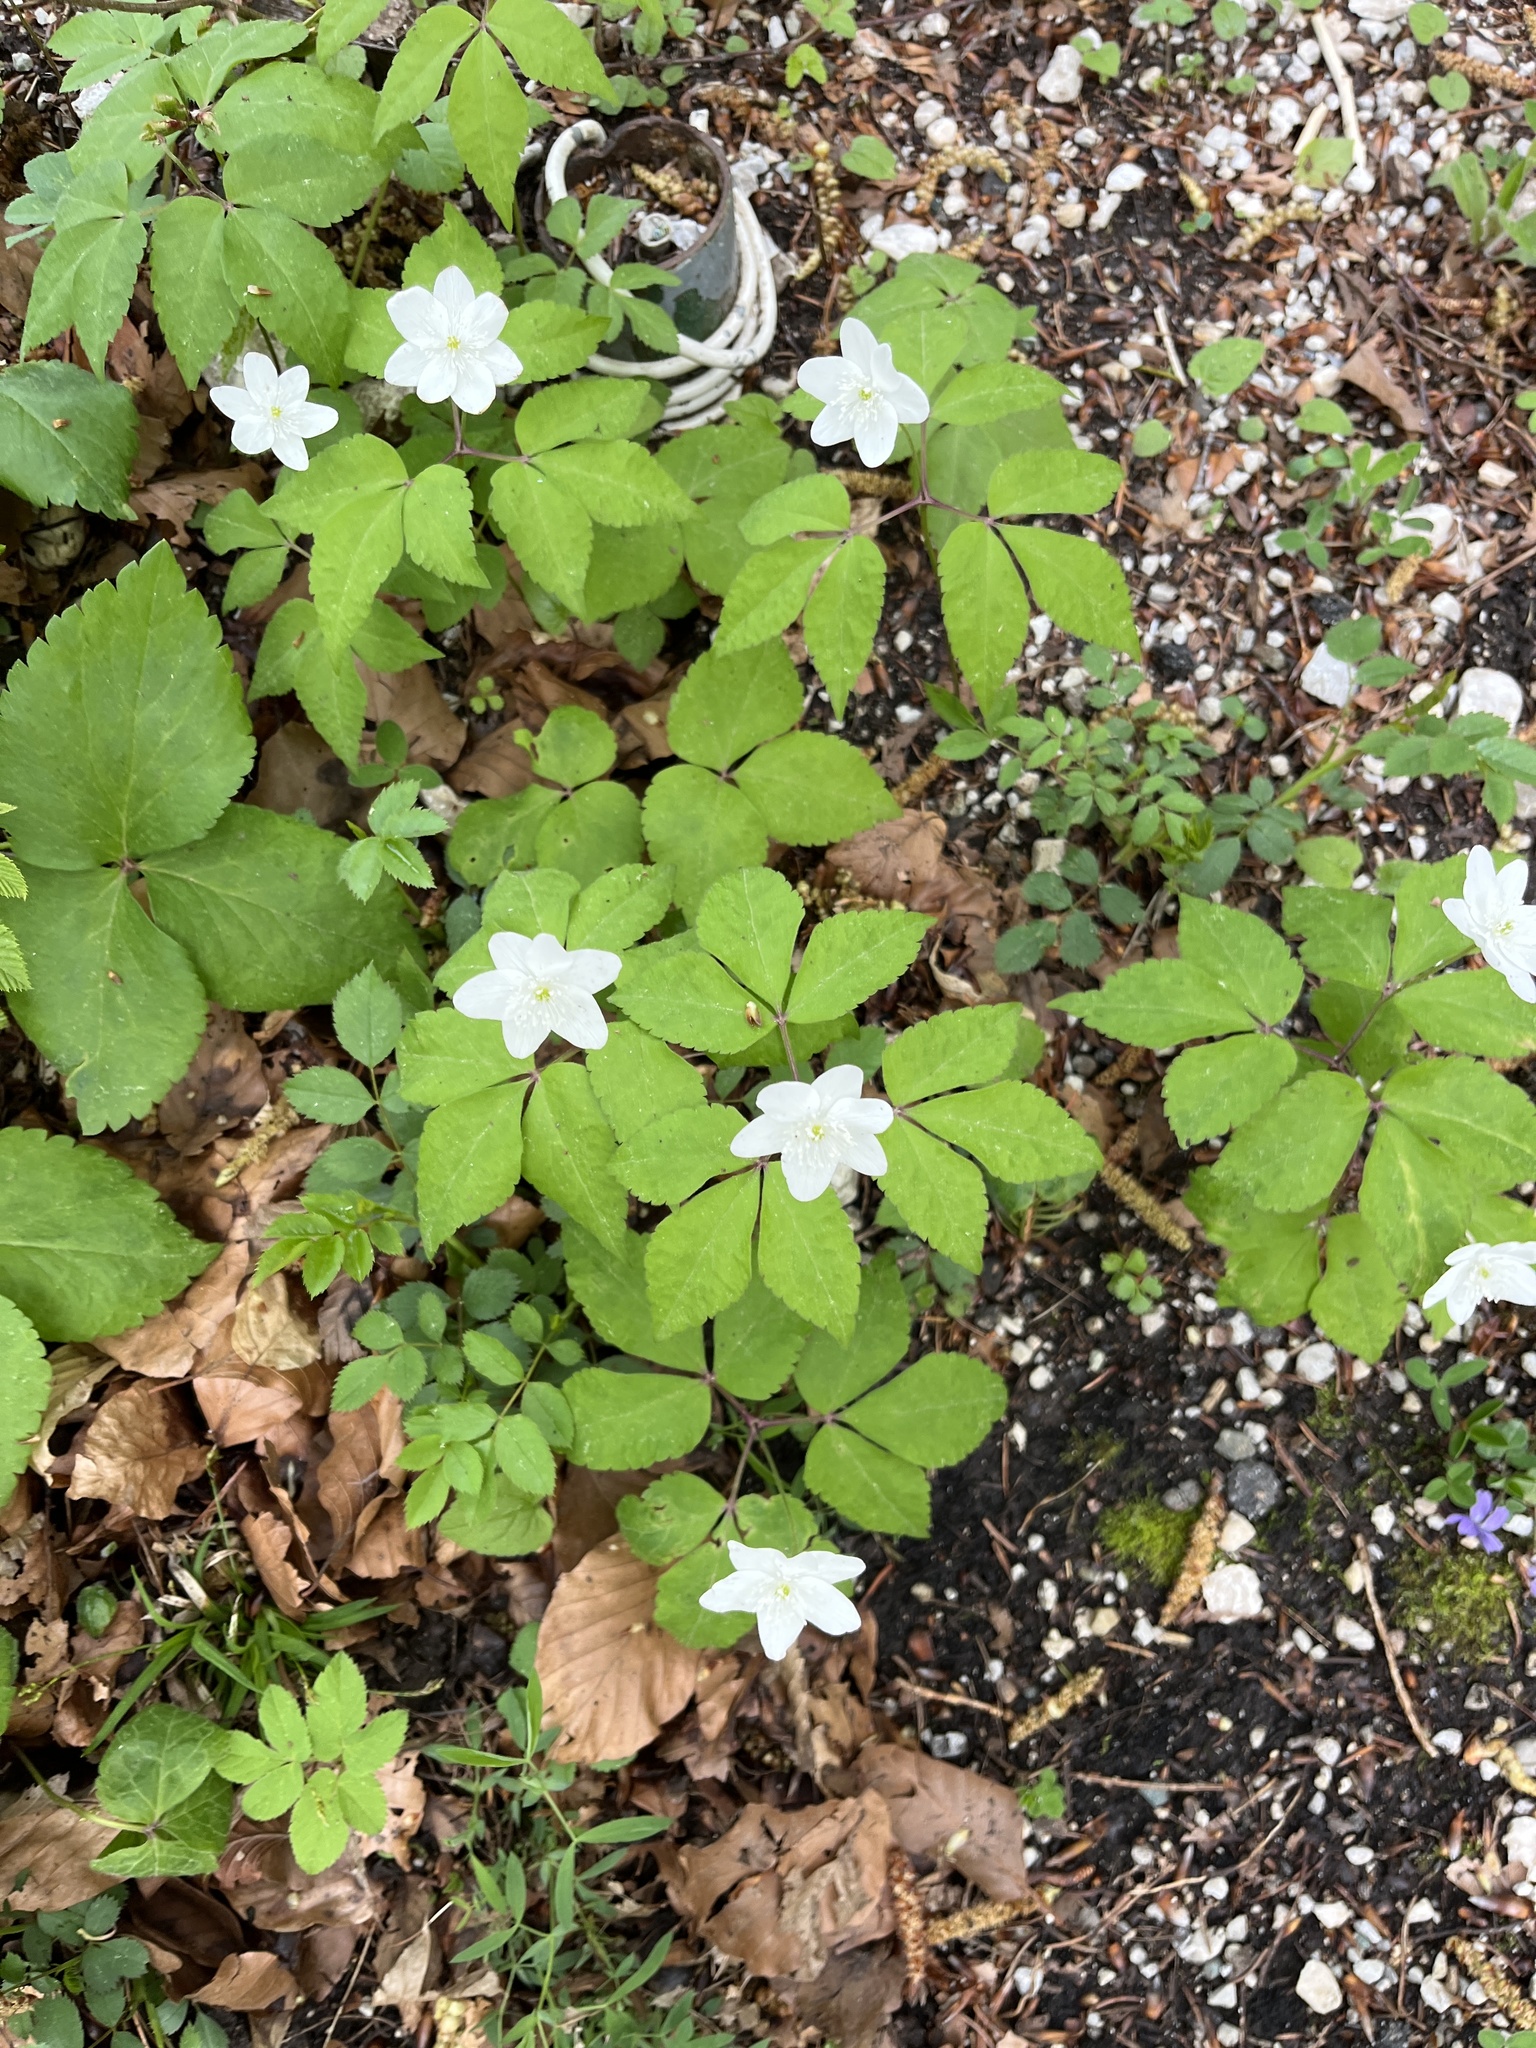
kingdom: Plantae
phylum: Tracheophyta
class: Magnoliopsida
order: Ranunculales
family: Ranunculaceae
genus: Anemone
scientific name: Anemone trifolia
